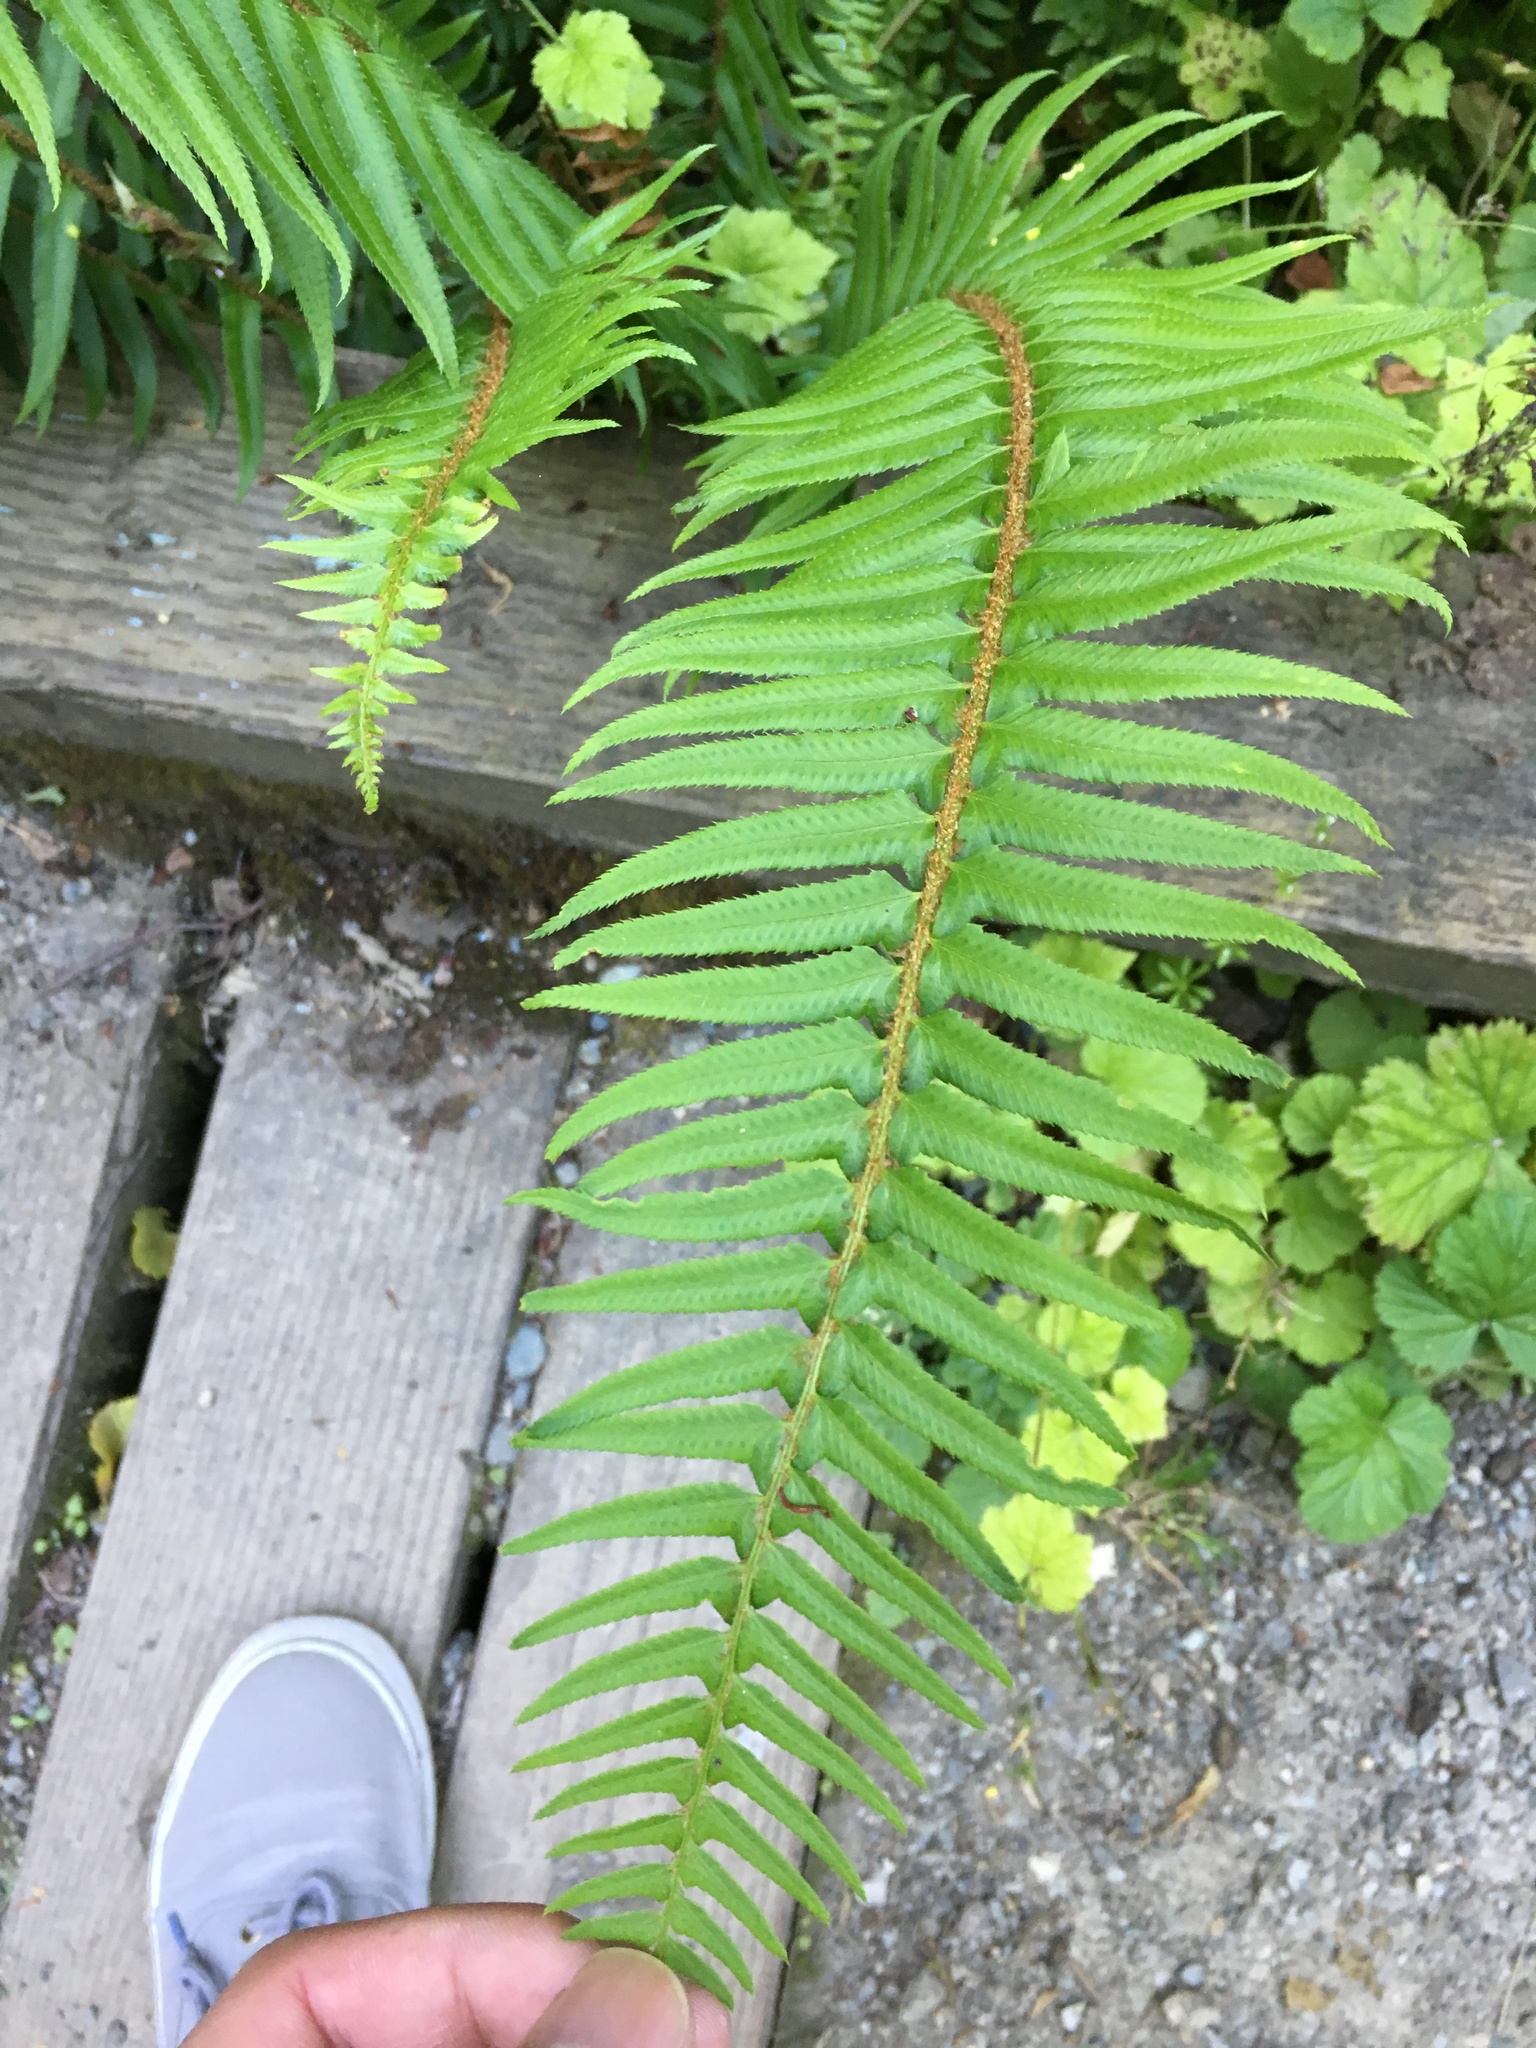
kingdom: Plantae
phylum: Tracheophyta
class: Polypodiopsida
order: Polypodiales
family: Dryopteridaceae
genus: Polystichum
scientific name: Polystichum munitum
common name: Western sword-fern
